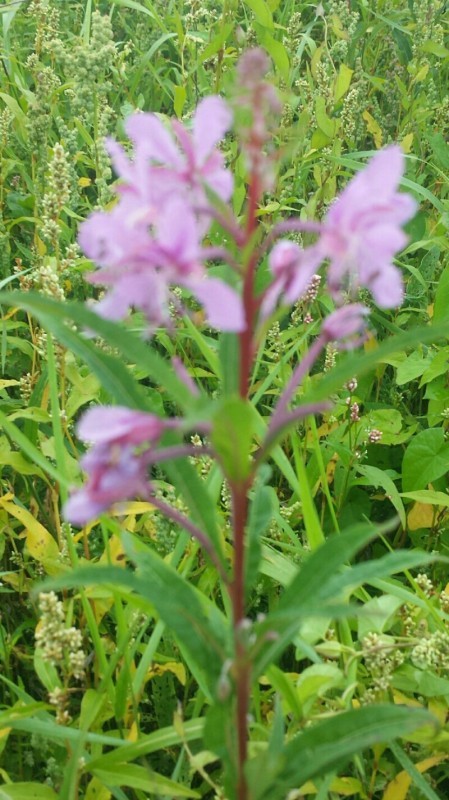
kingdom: Plantae
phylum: Tracheophyta
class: Magnoliopsida
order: Myrtales
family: Onagraceae
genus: Chamaenerion
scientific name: Chamaenerion angustifolium
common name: Fireweed
